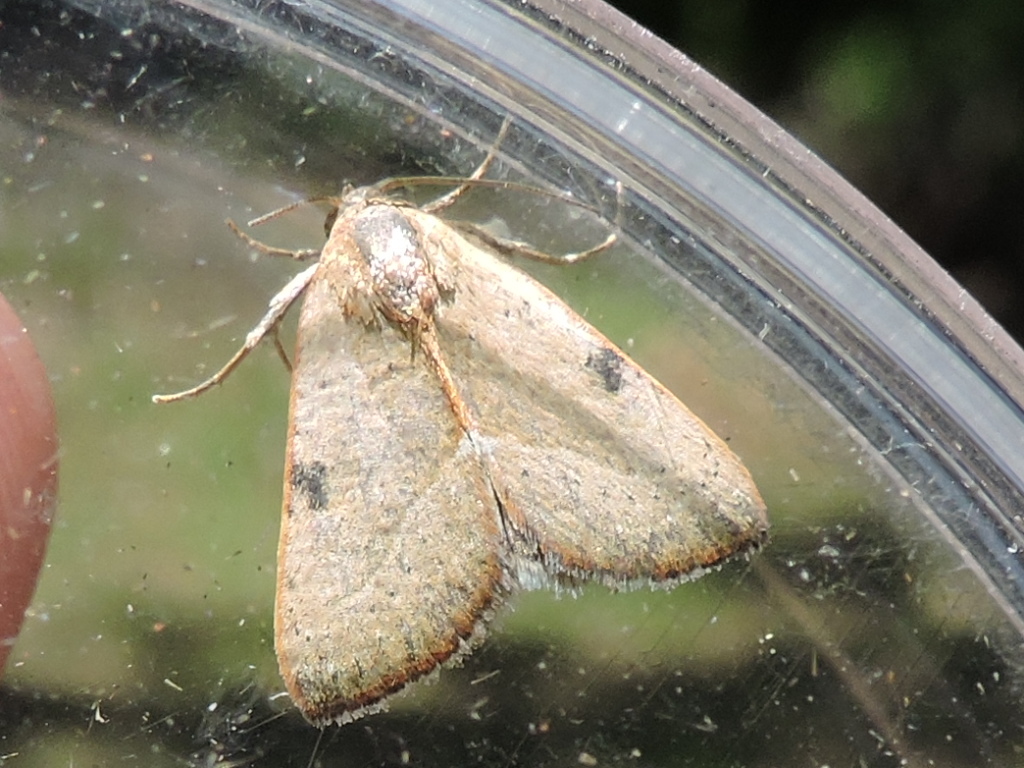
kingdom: Animalia
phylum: Arthropoda
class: Insecta
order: Lepidoptera
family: Noctuidae
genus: Galgula
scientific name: Galgula partita
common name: Wedgeling
